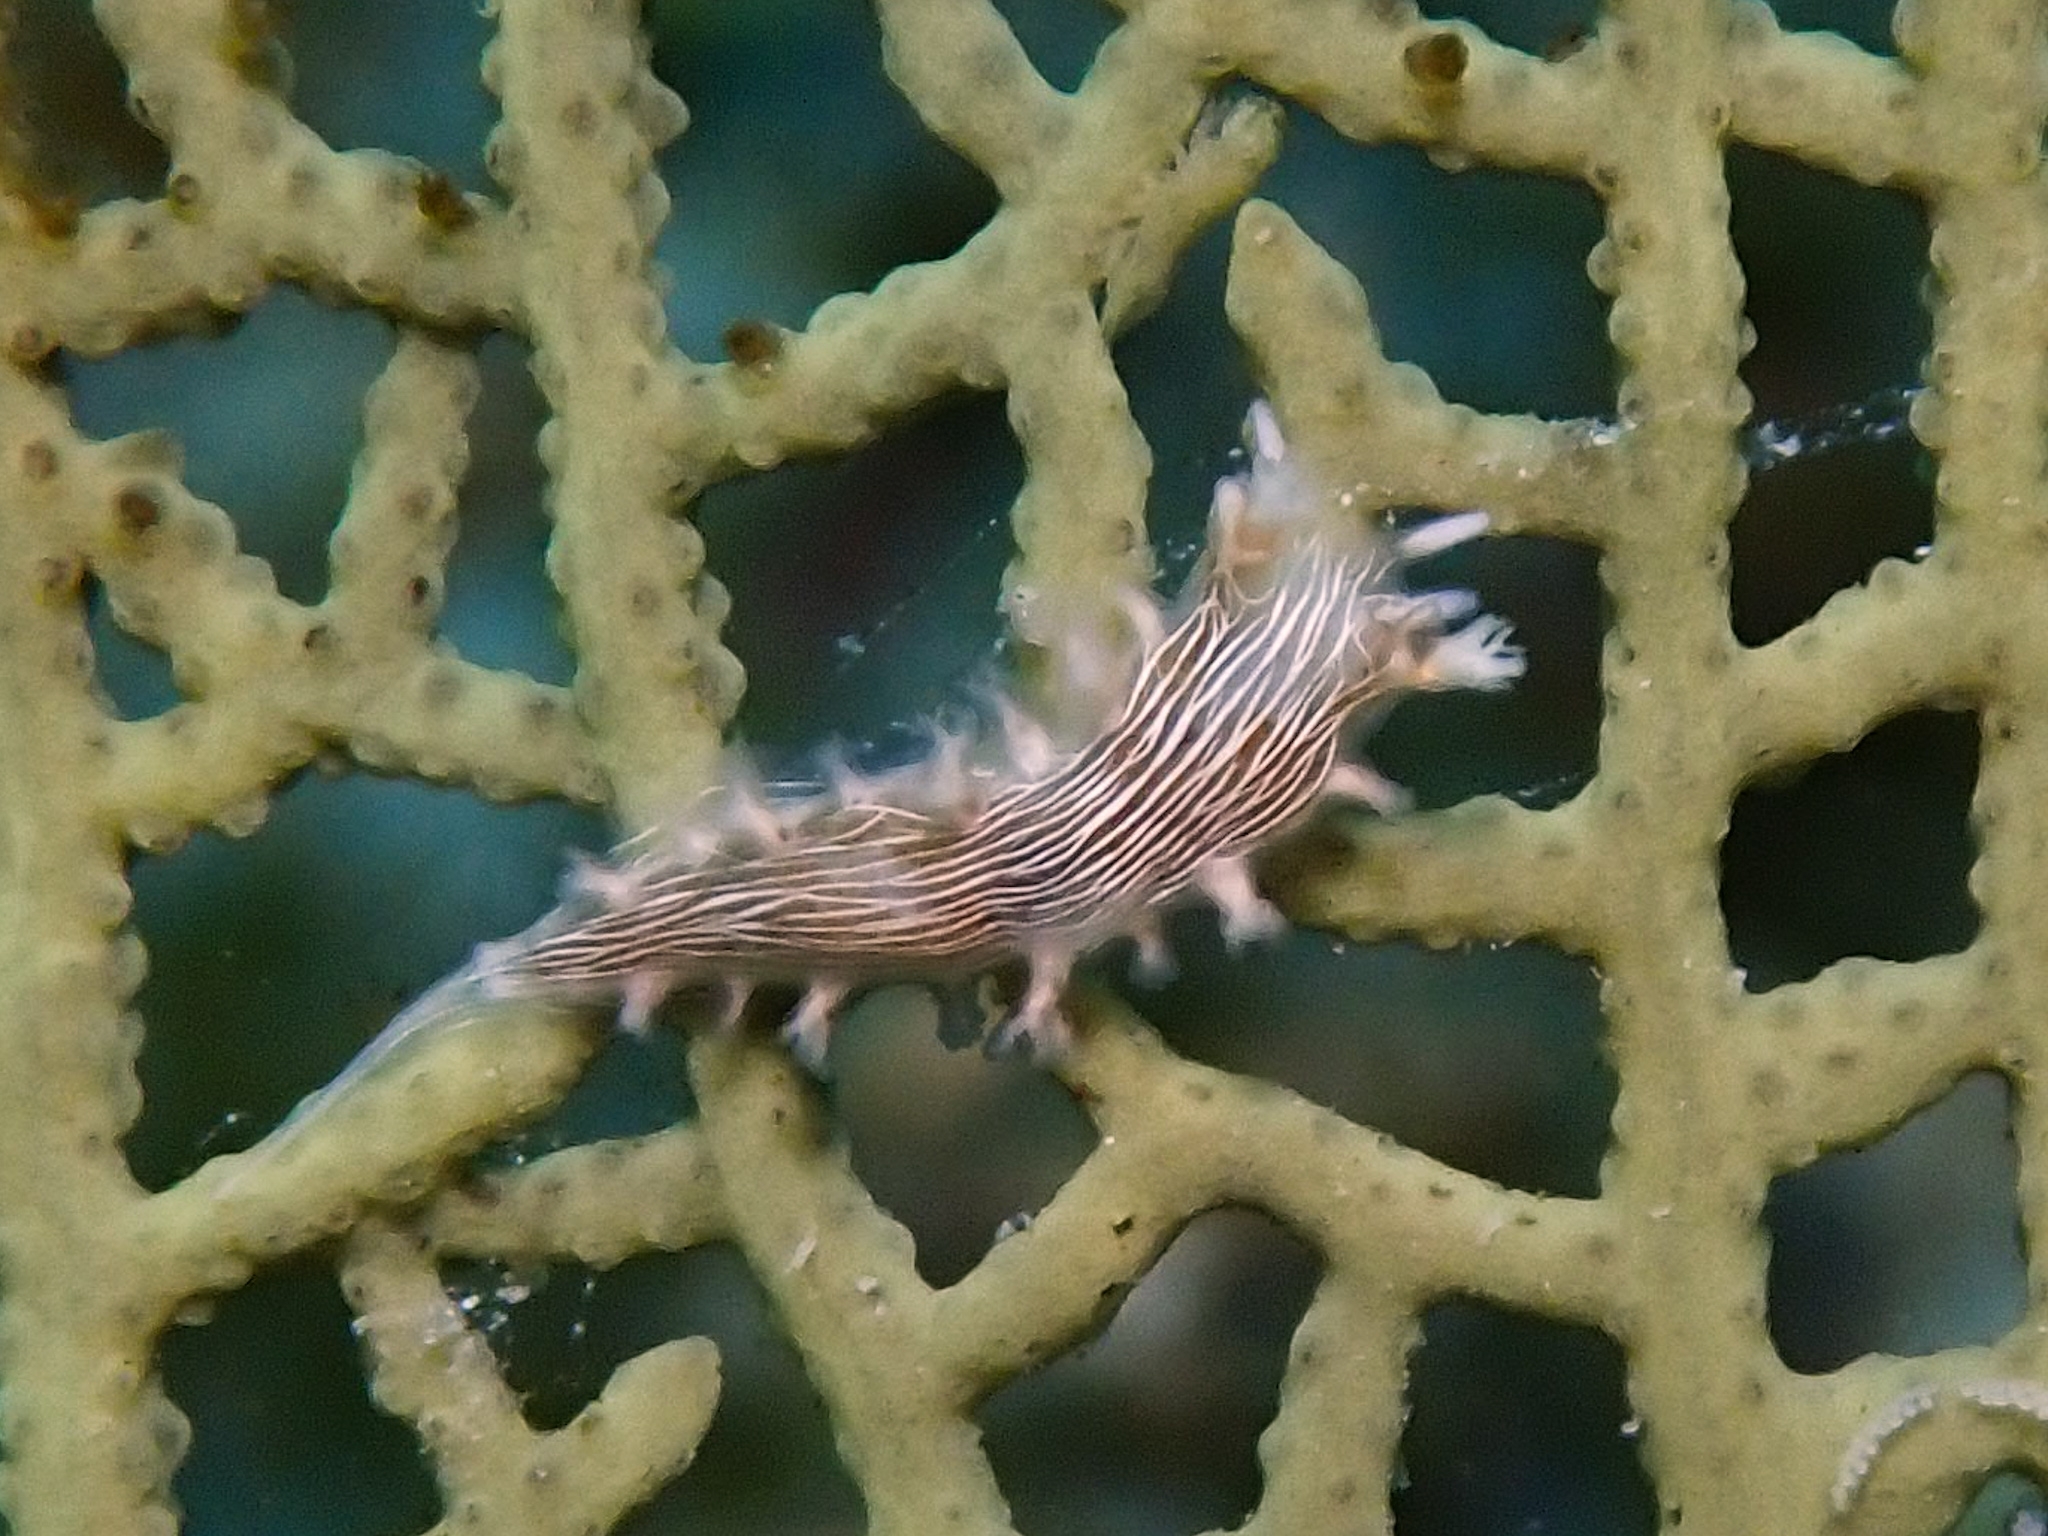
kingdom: Animalia
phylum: Mollusca
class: Gastropoda
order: Nudibranchia
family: Tritoniidae
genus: Tritonicula
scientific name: Tritonicula hamnerorum
